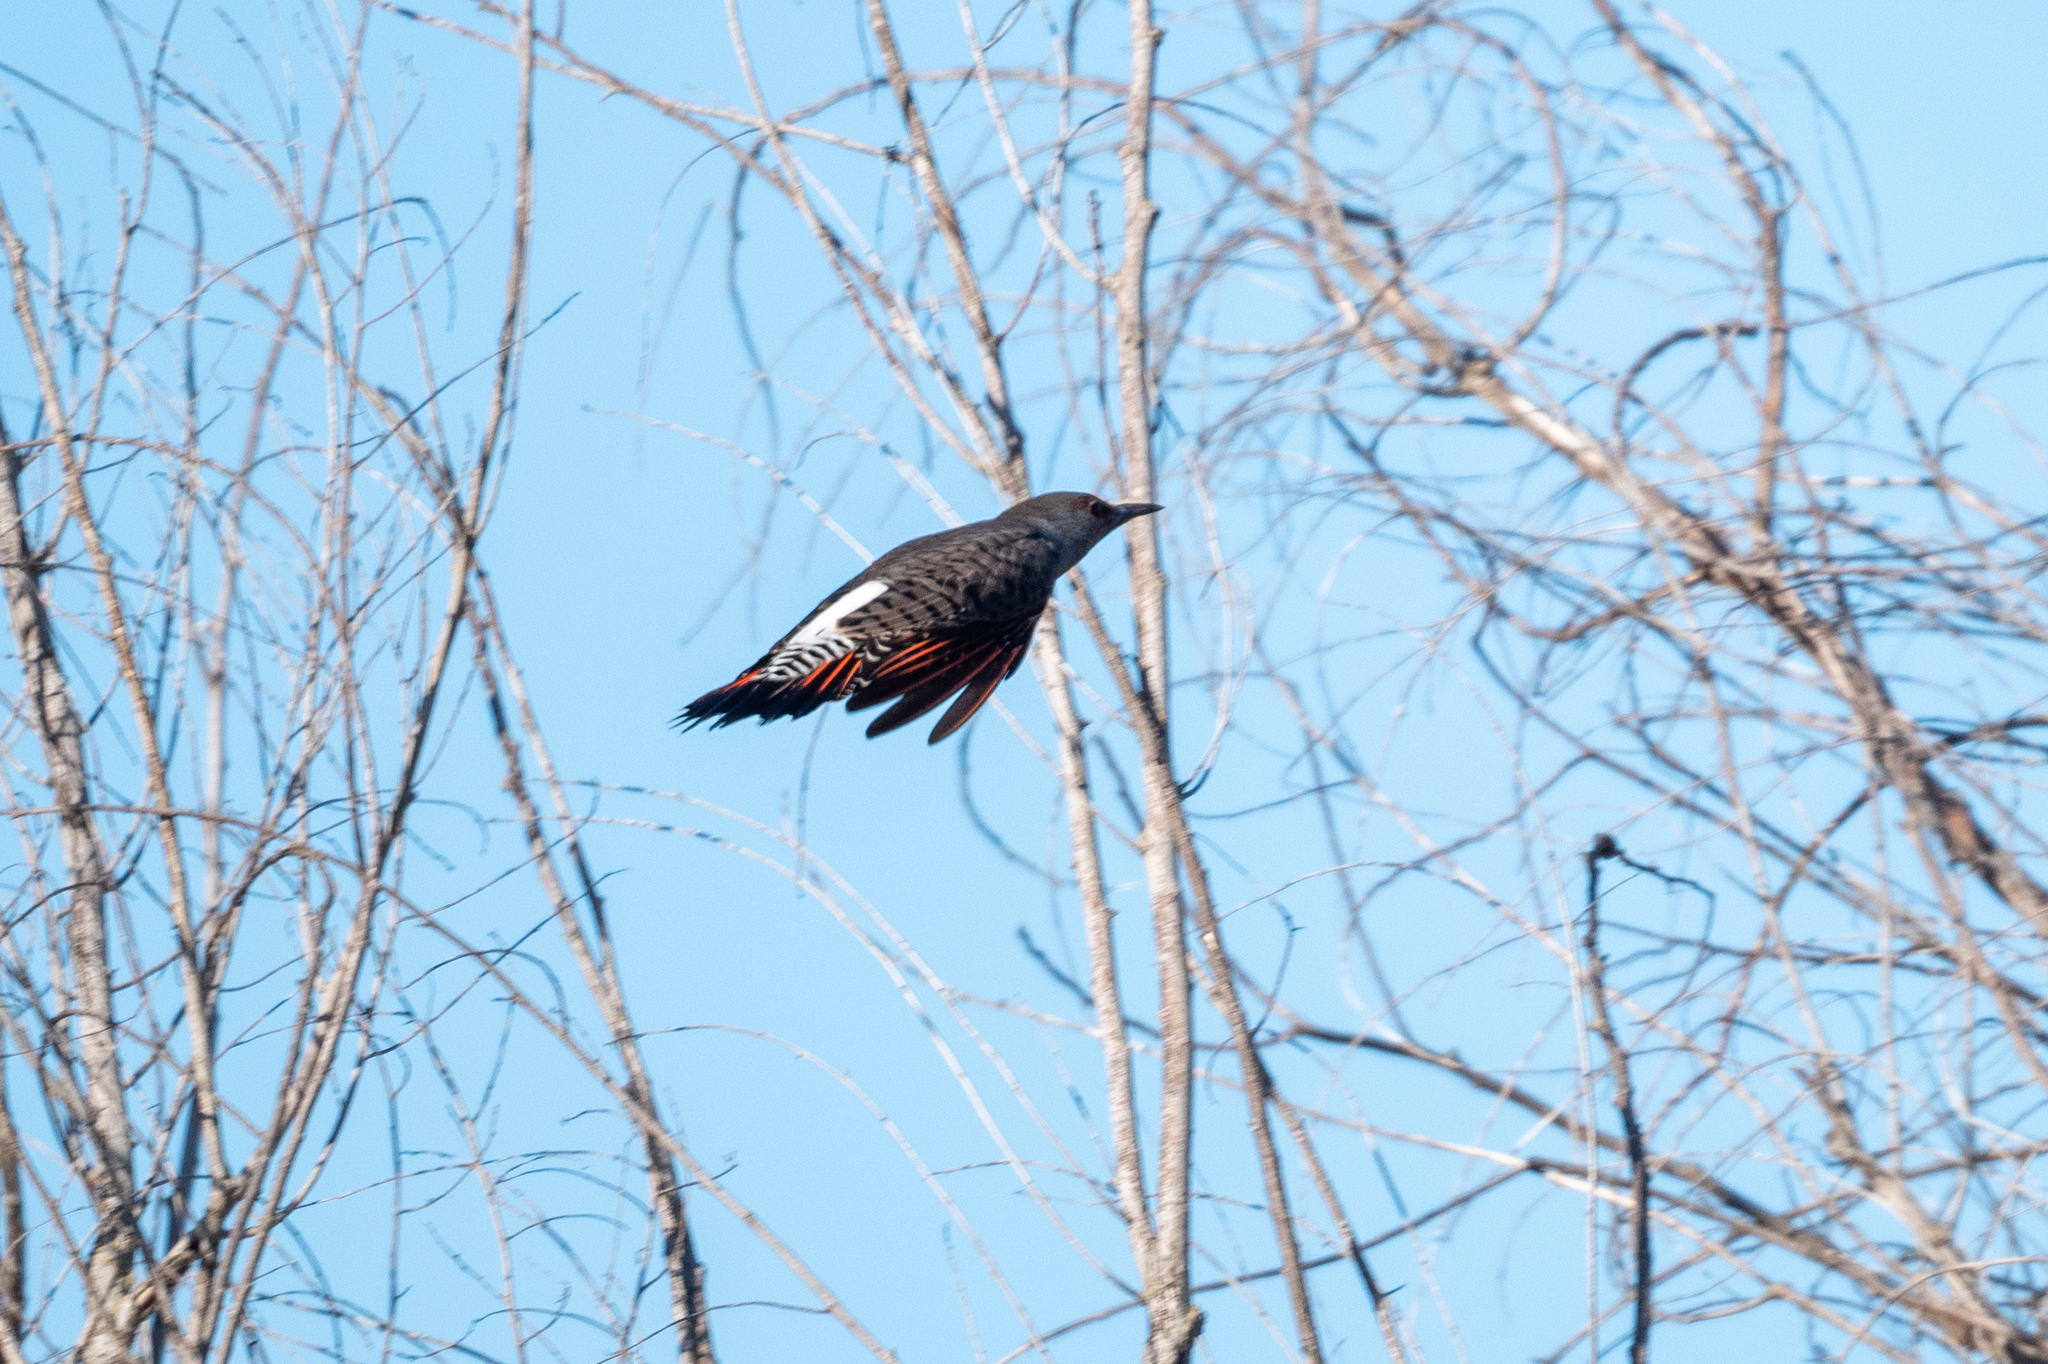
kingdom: Animalia
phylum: Chordata
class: Aves
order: Piciformes
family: Picidae
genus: Colaptes
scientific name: Colaptes auratus
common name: Northern flicker
